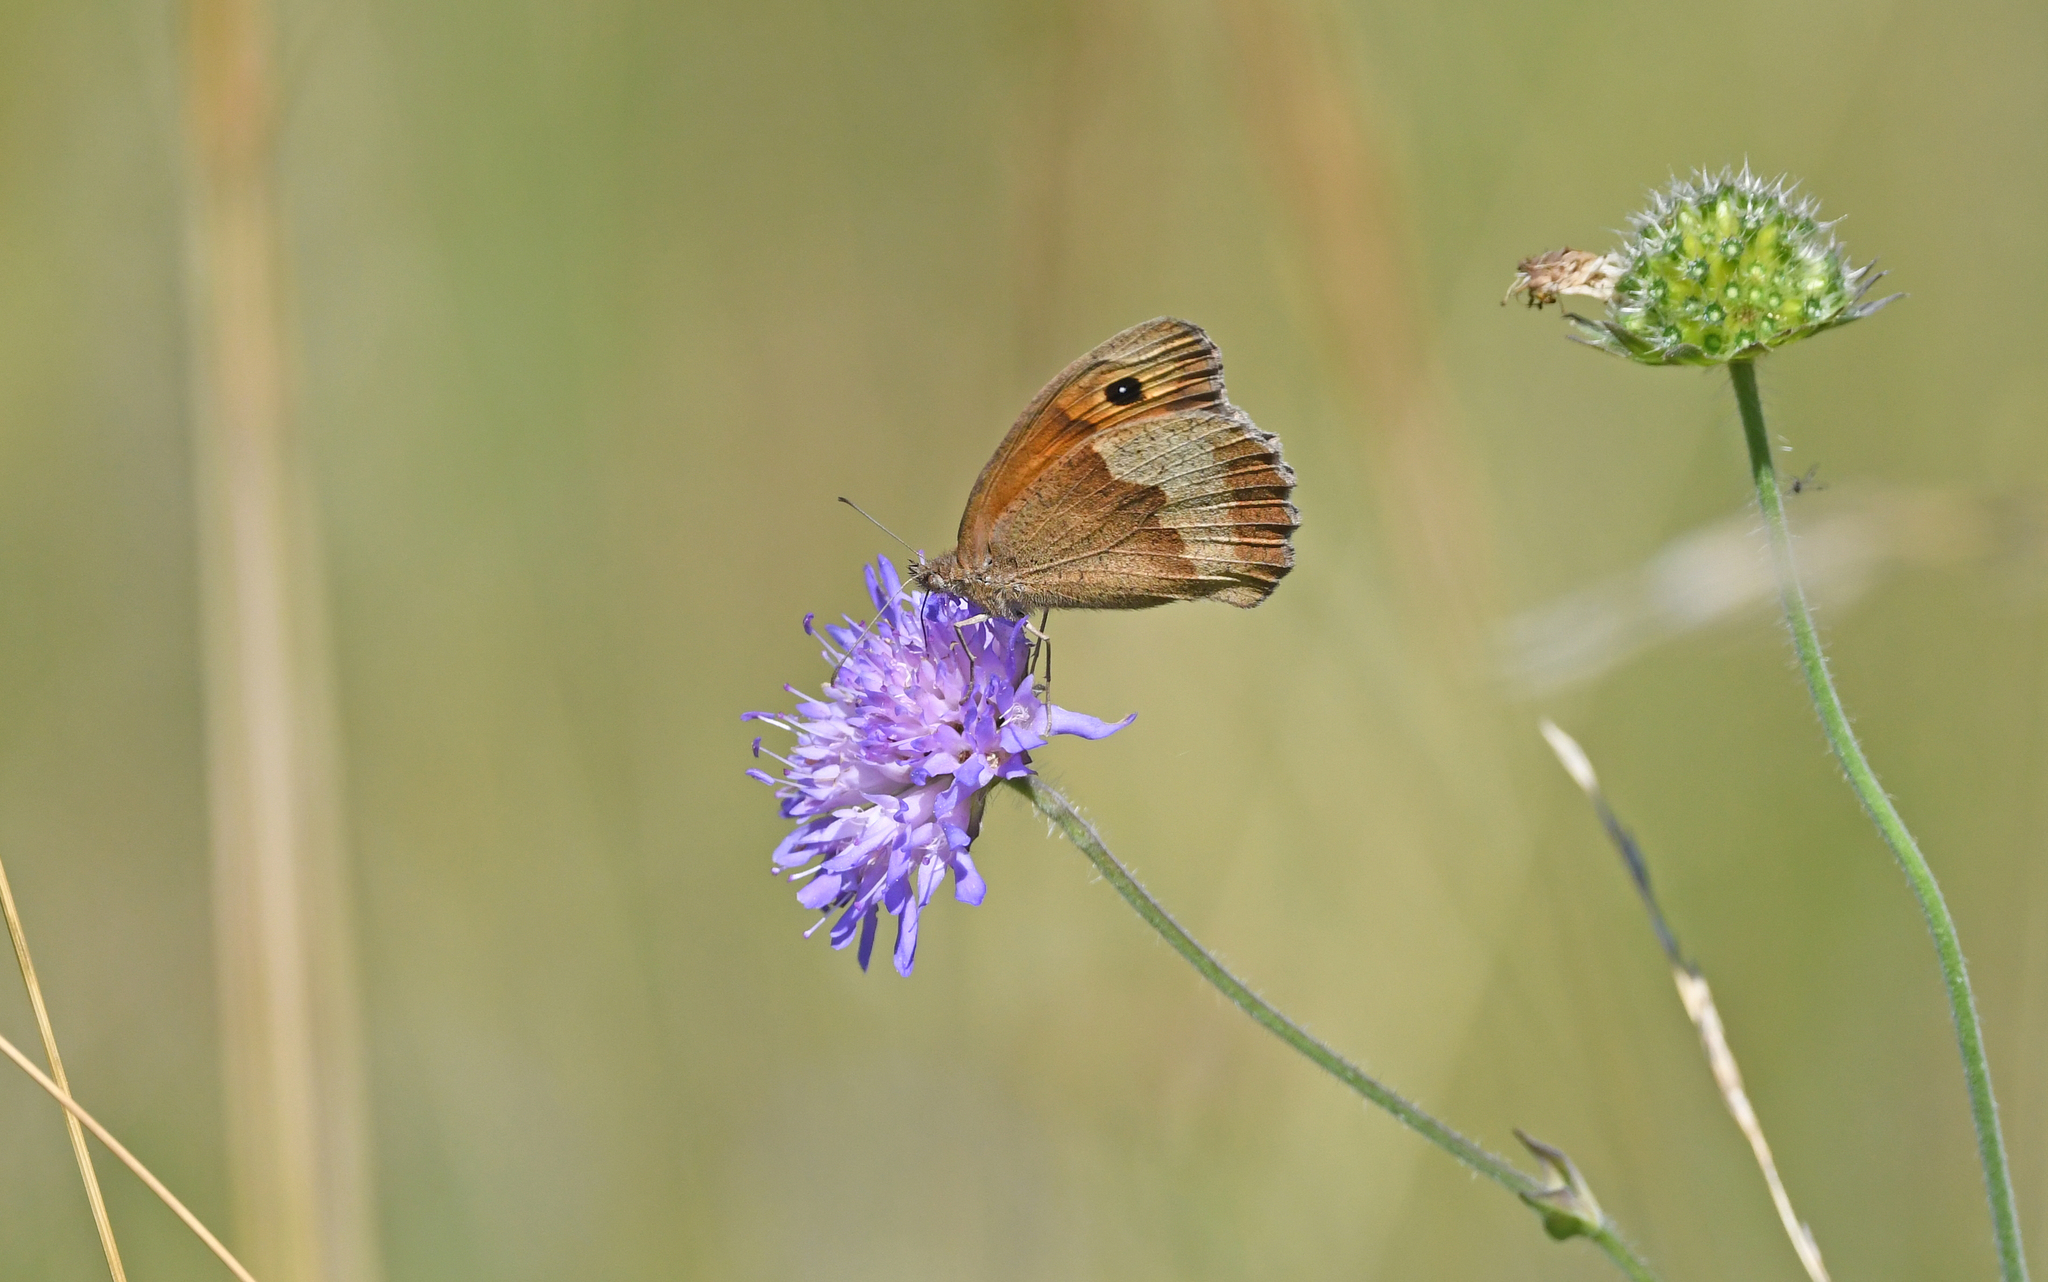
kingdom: Animalia
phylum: Arthropoda
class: Insecta
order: Lepidoptera
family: Nymphalidae
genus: Maniola
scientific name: Maniola jurtina
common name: Meadow brown
